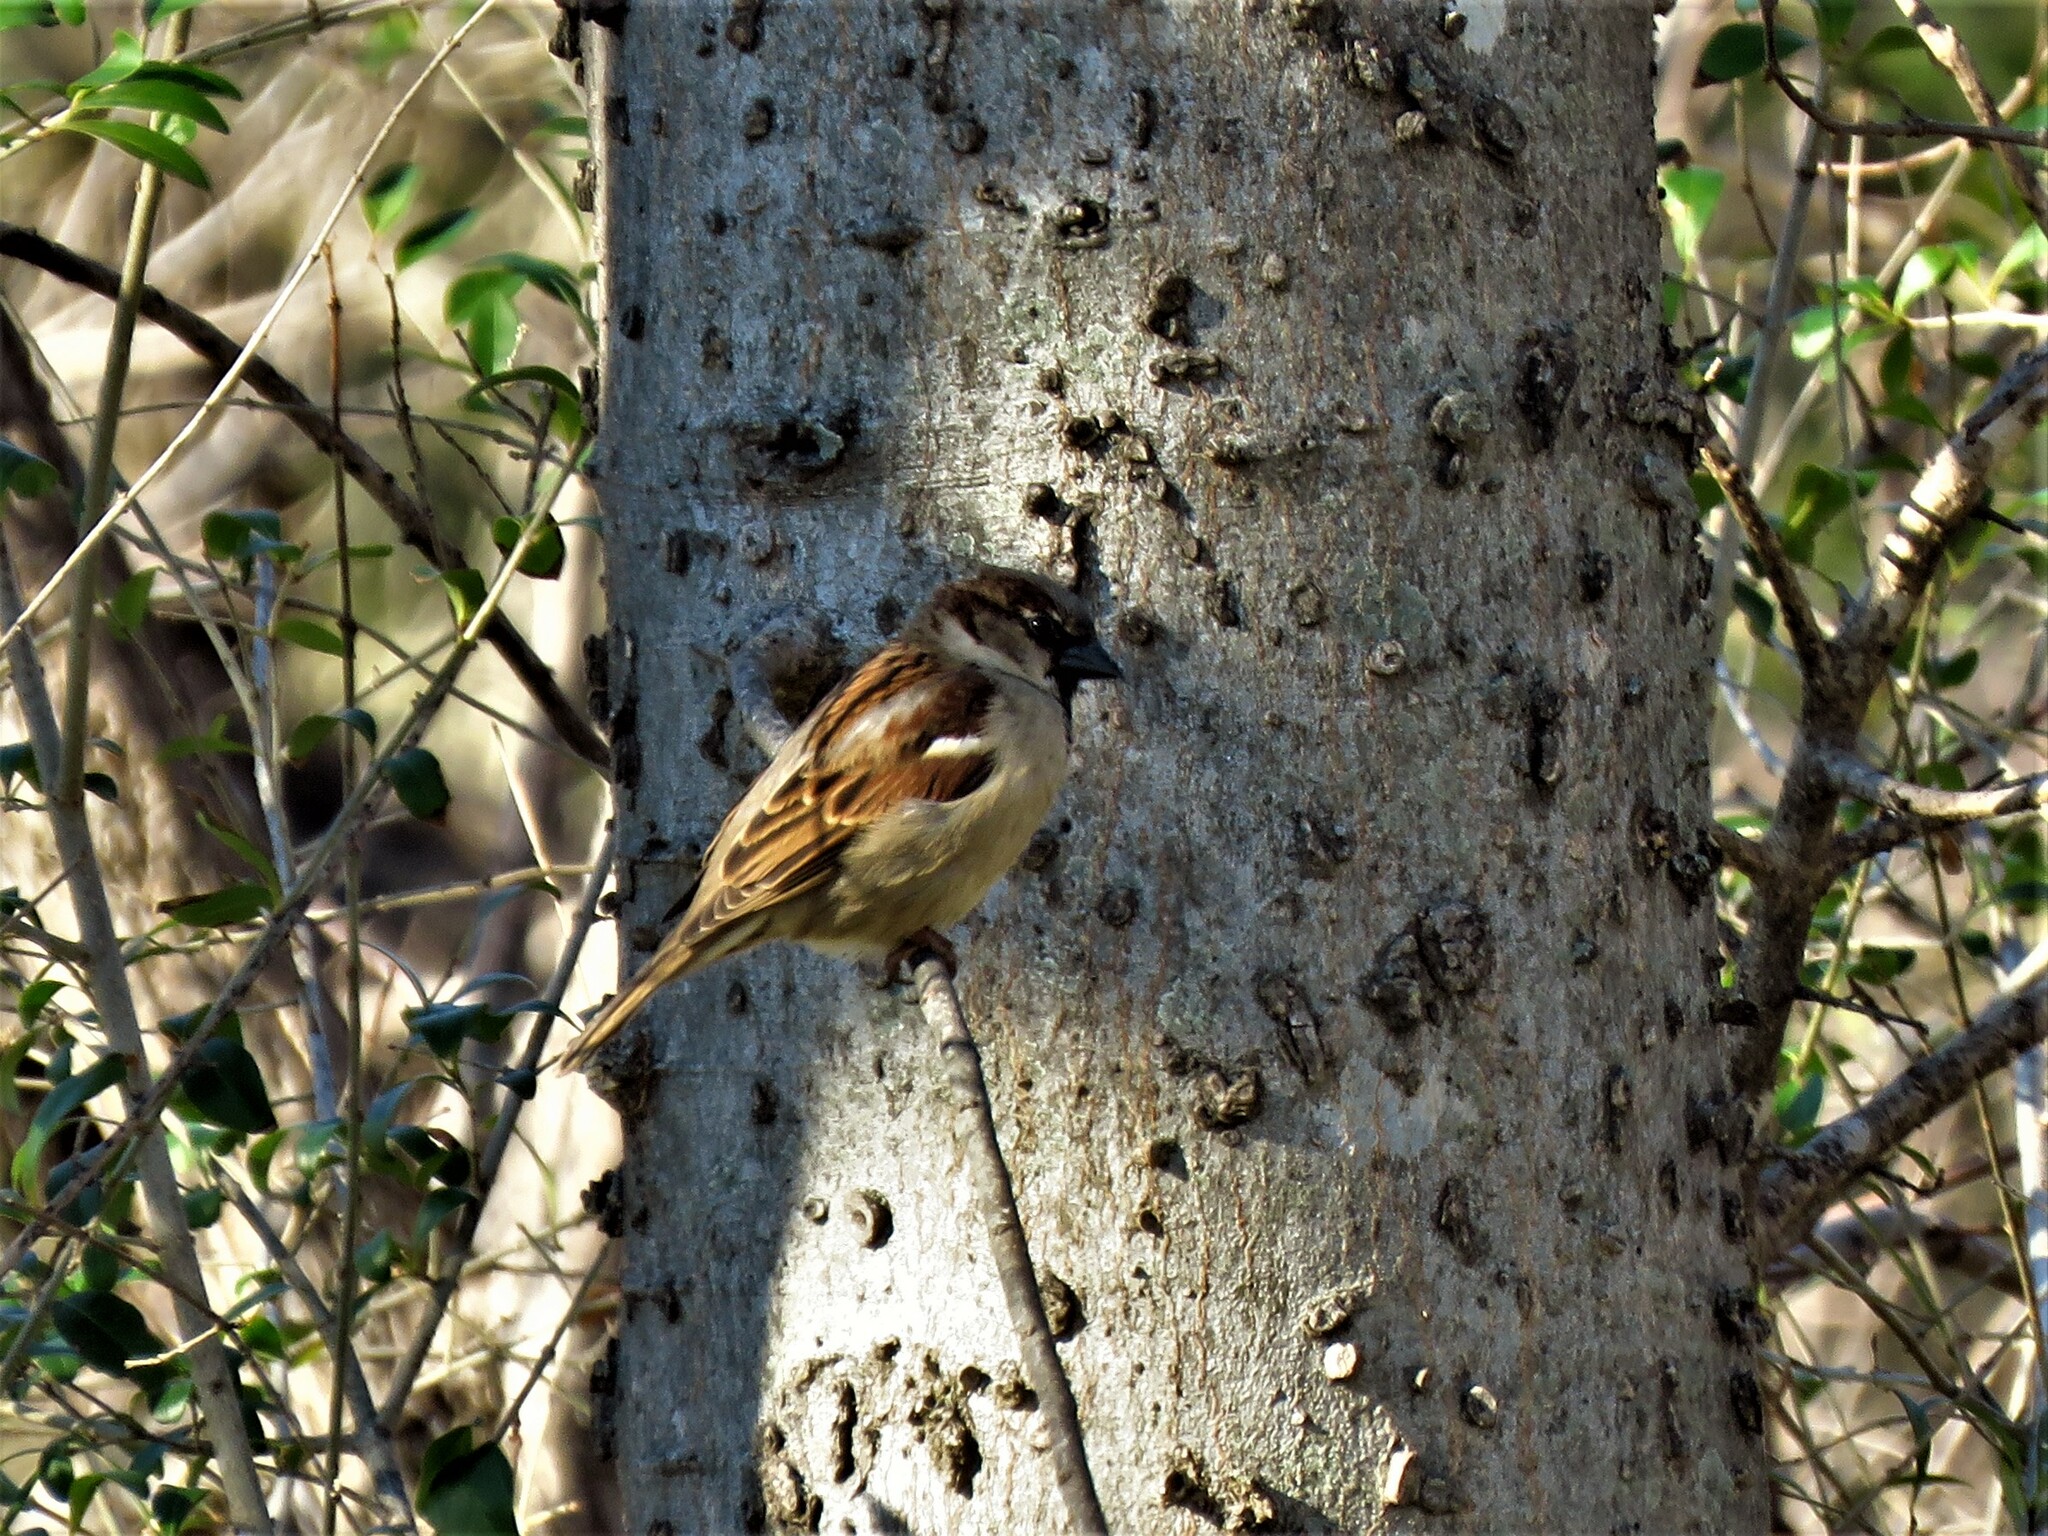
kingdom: Animalia
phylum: Chordata
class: Aves
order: Passeriformes
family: Passeridae
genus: Passer
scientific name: Passer domesticus
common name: House sparrow
